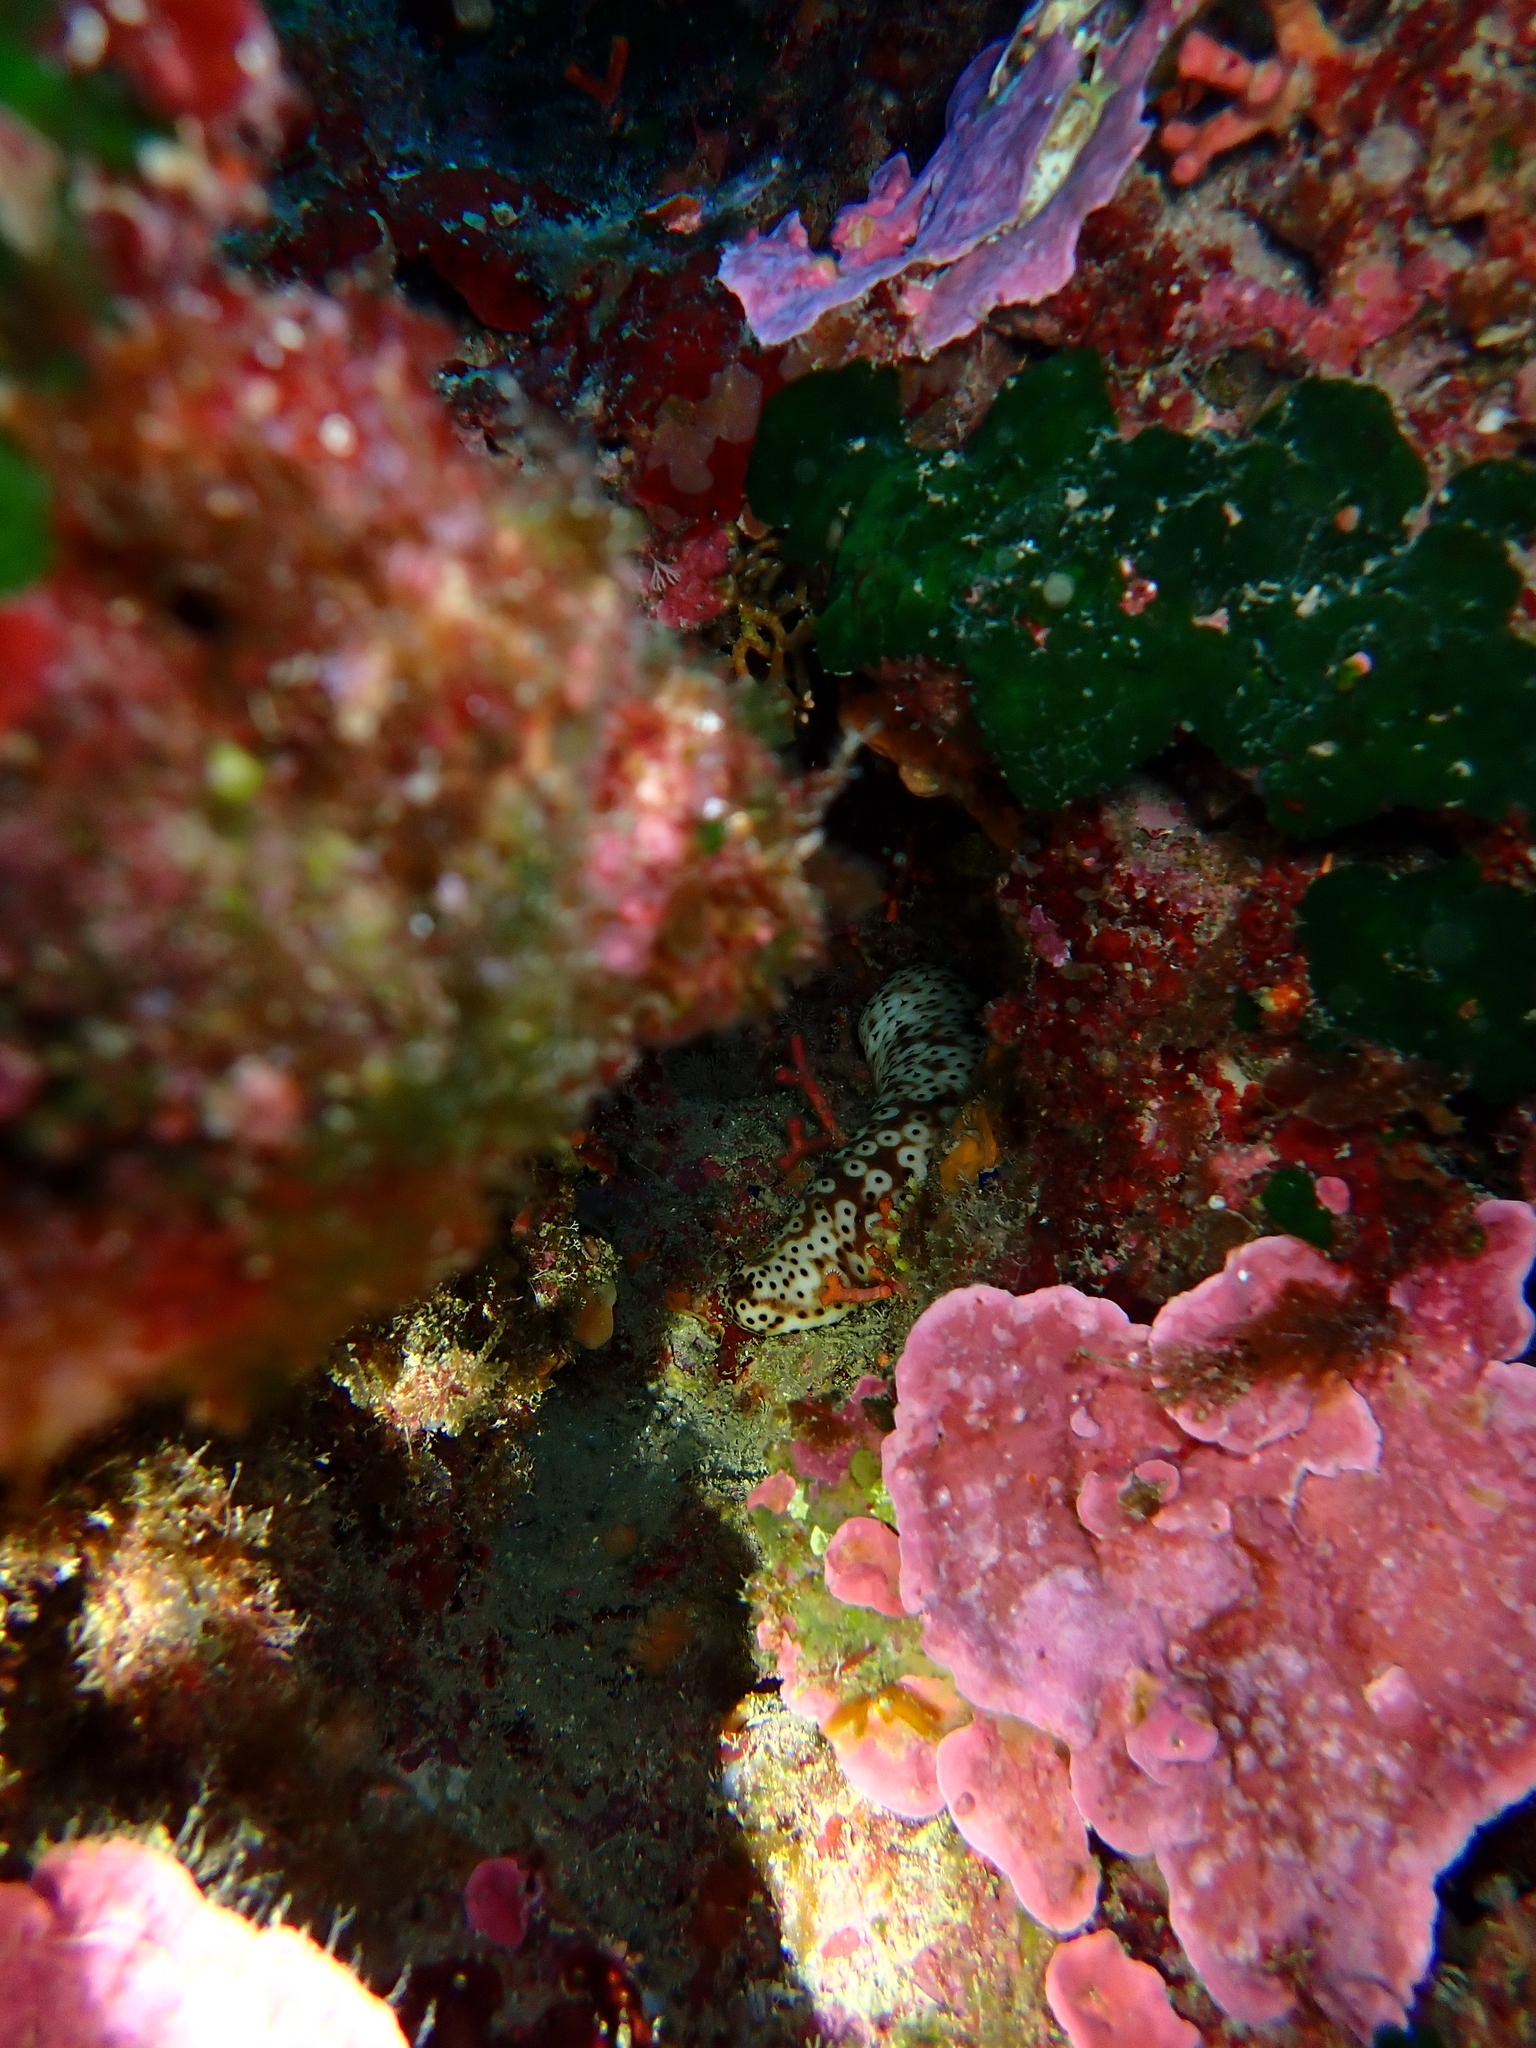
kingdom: Animalia
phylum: Echinodermata
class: Holothuroidea
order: Holothuriida
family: Holothuriidae
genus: Holothuria
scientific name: Holothuria sanctori
